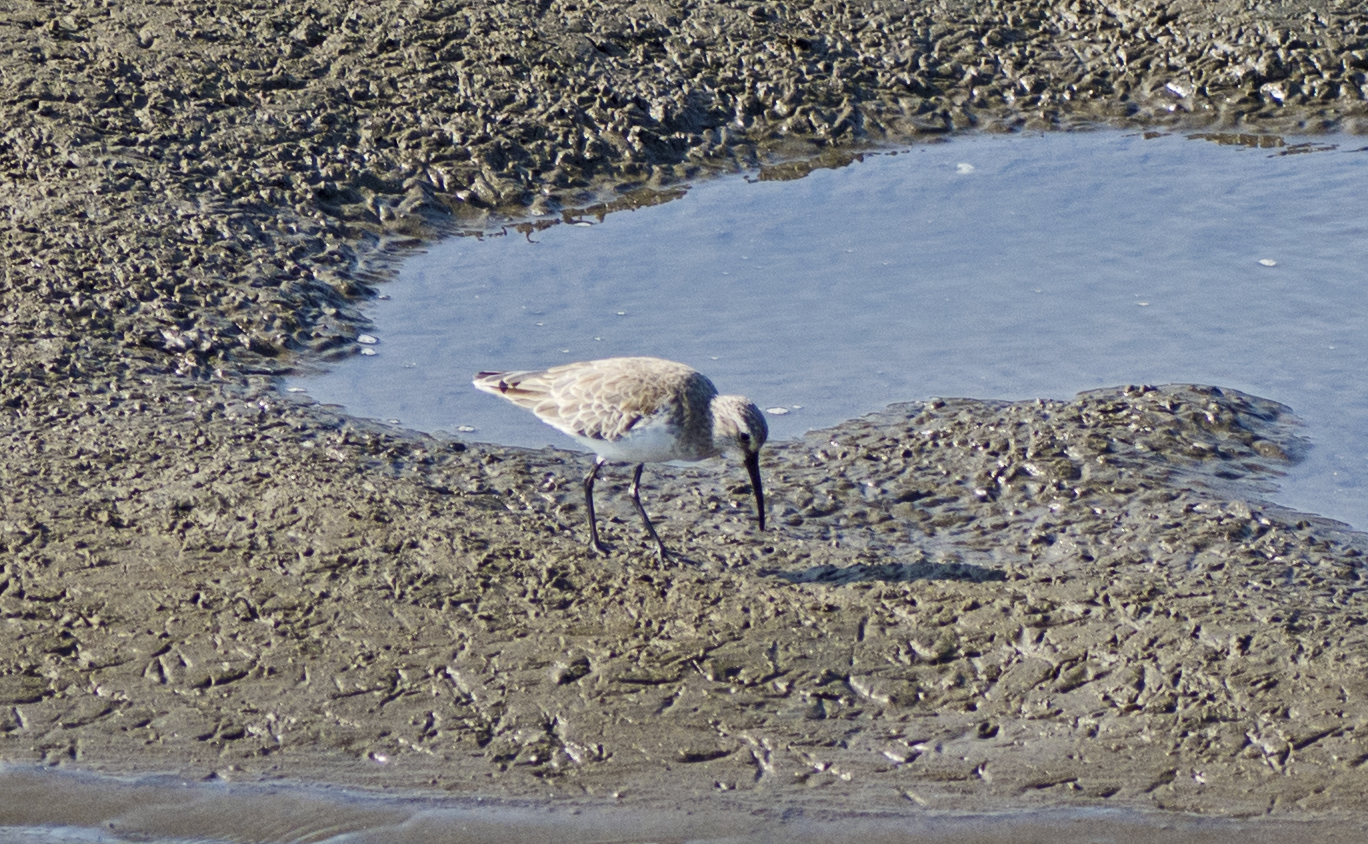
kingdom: Animalia
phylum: Chordata
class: Aves
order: Charadriiformes
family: Scolopacidae
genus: Calidris
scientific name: Calidris ferruginea
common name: Curlew sandpiper
